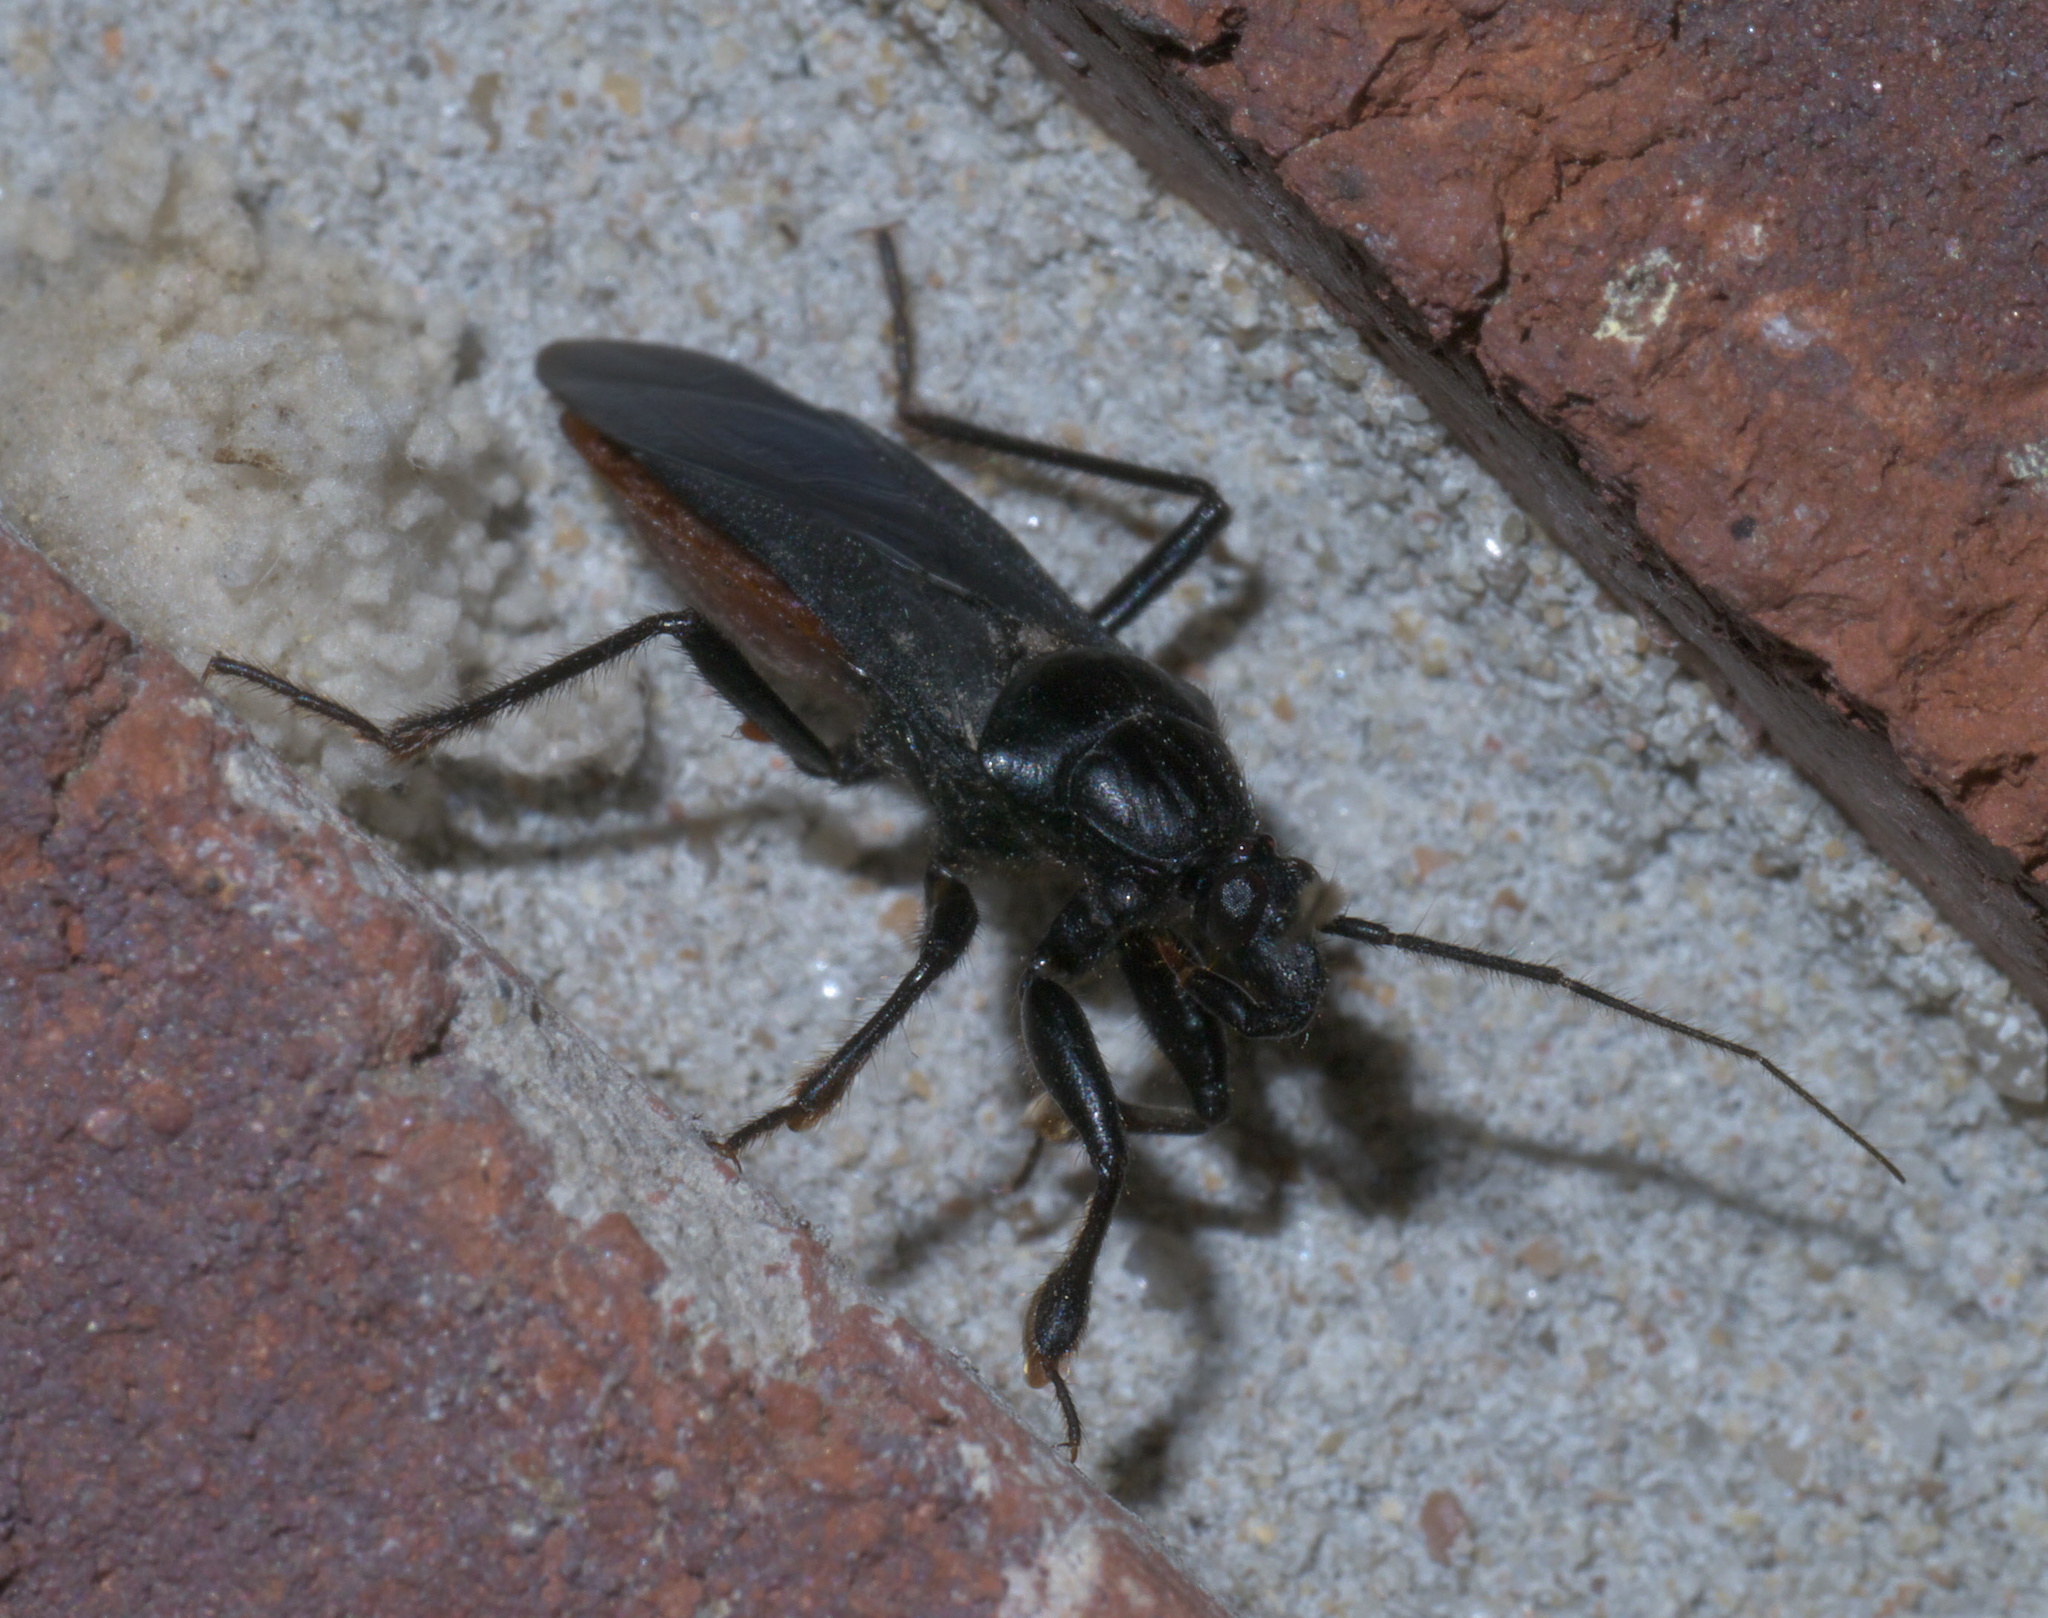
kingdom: Animalia
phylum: Arthropoda
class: Insecta
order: Hemiptera
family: Reduviidae
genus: Melanolestes
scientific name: Melanolestes picipes
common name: Assassin bug
